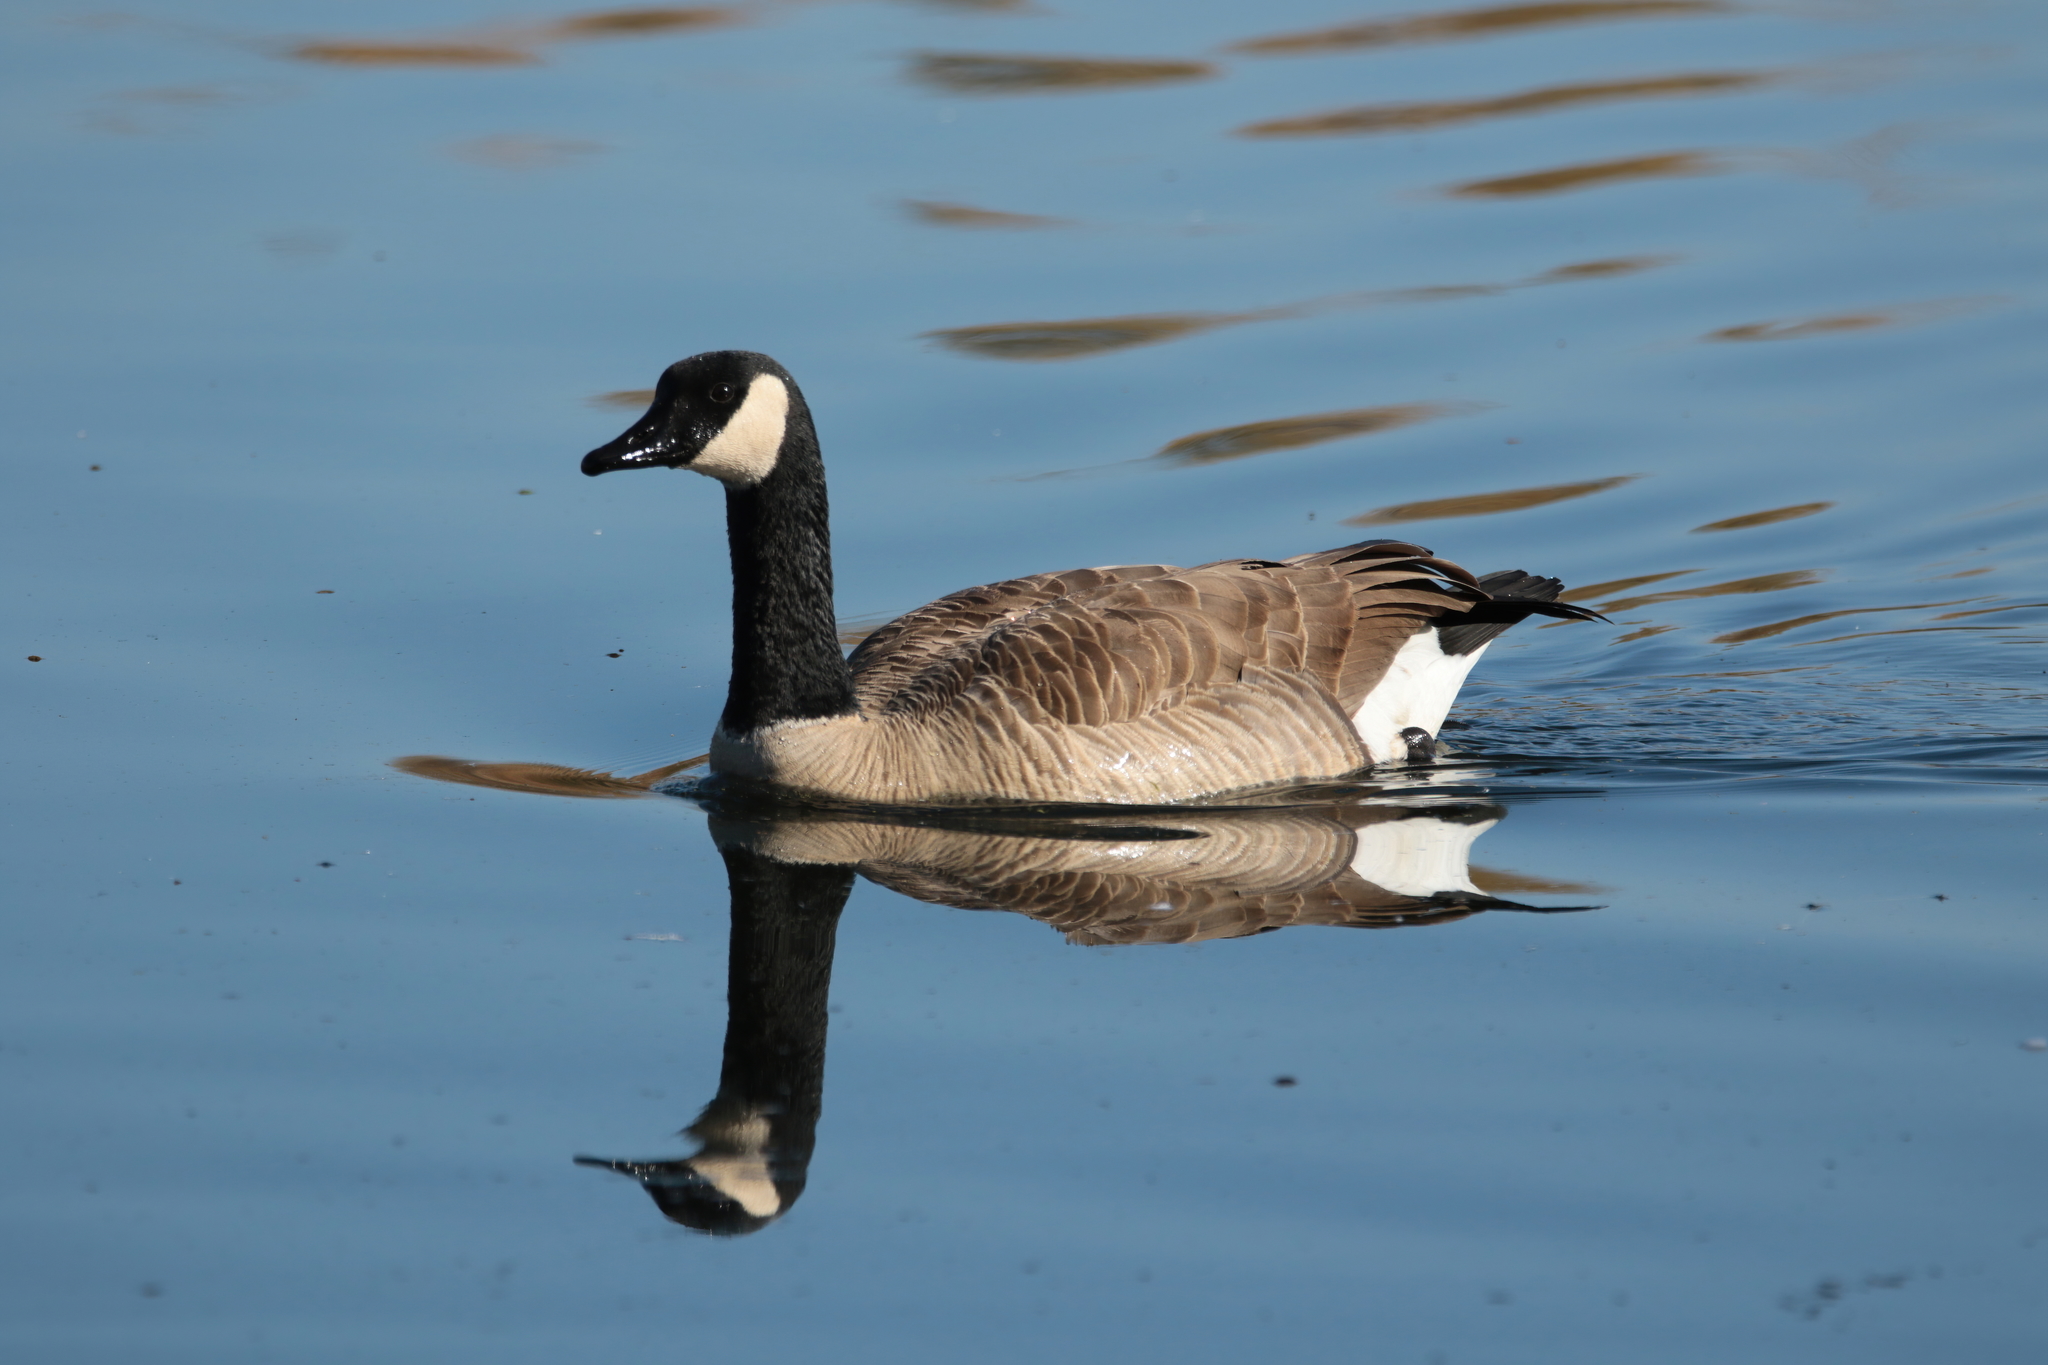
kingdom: Animalia
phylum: Chordata
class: Aves
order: Anseriformes
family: Anatidae
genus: Branta
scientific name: Branta canadensis
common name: Canada goose
